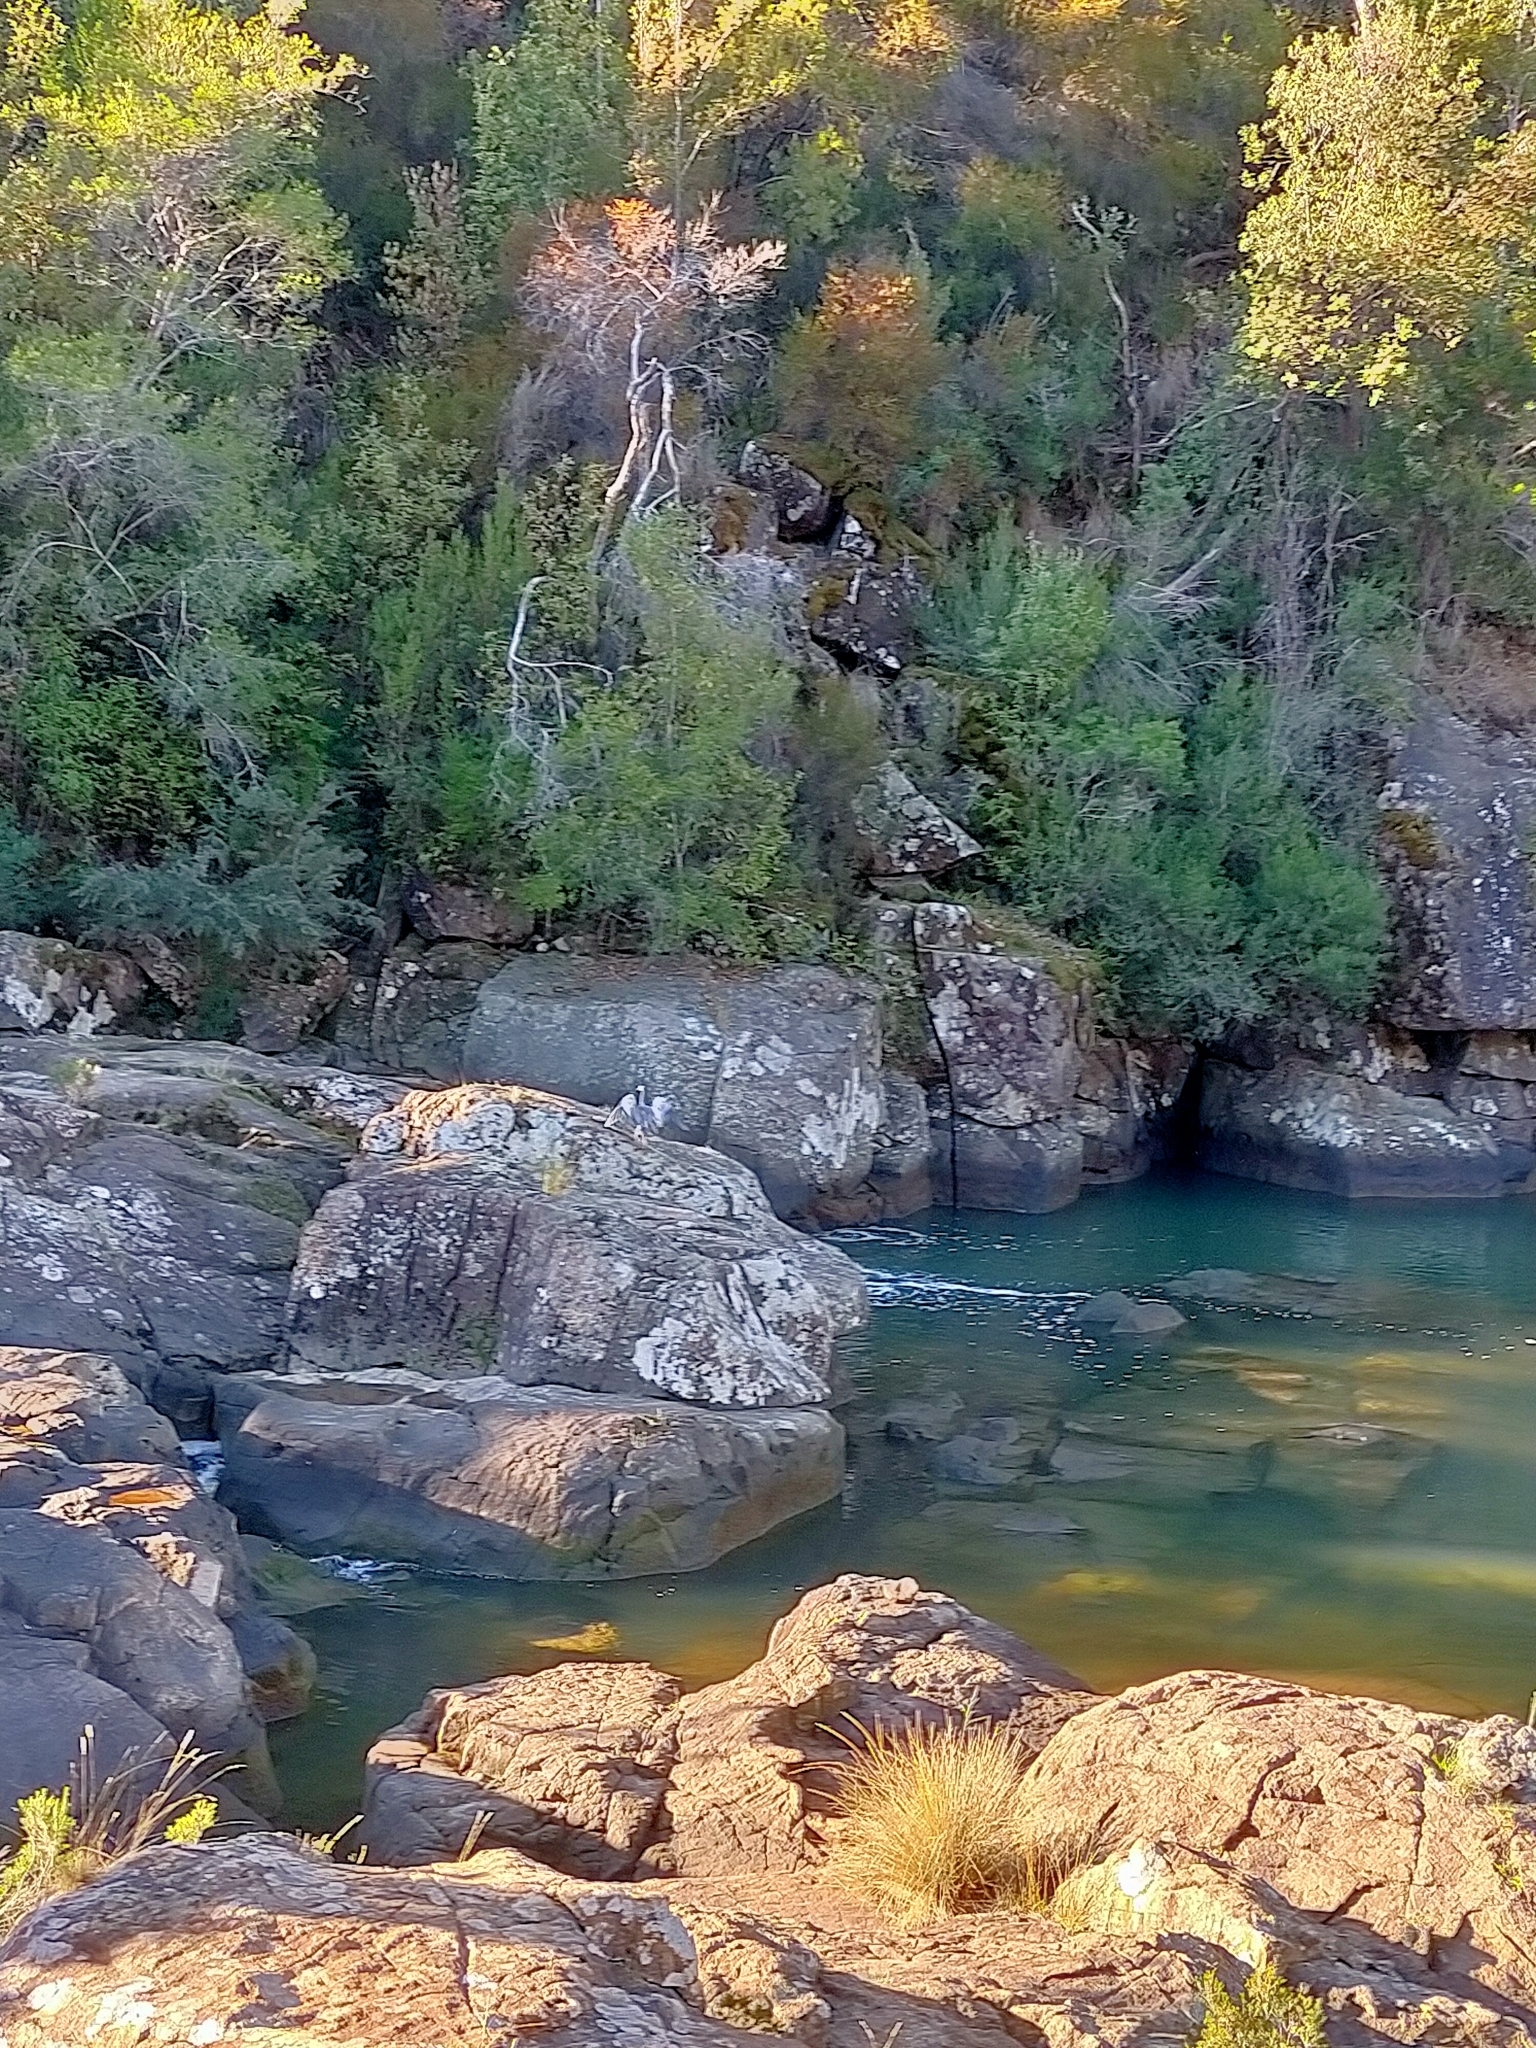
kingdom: Animalia
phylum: Chordata
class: Aves
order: Pelecaniformes
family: Ardeidae
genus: Egretta
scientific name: Egretta novaehollandiae
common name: White-faced heron
